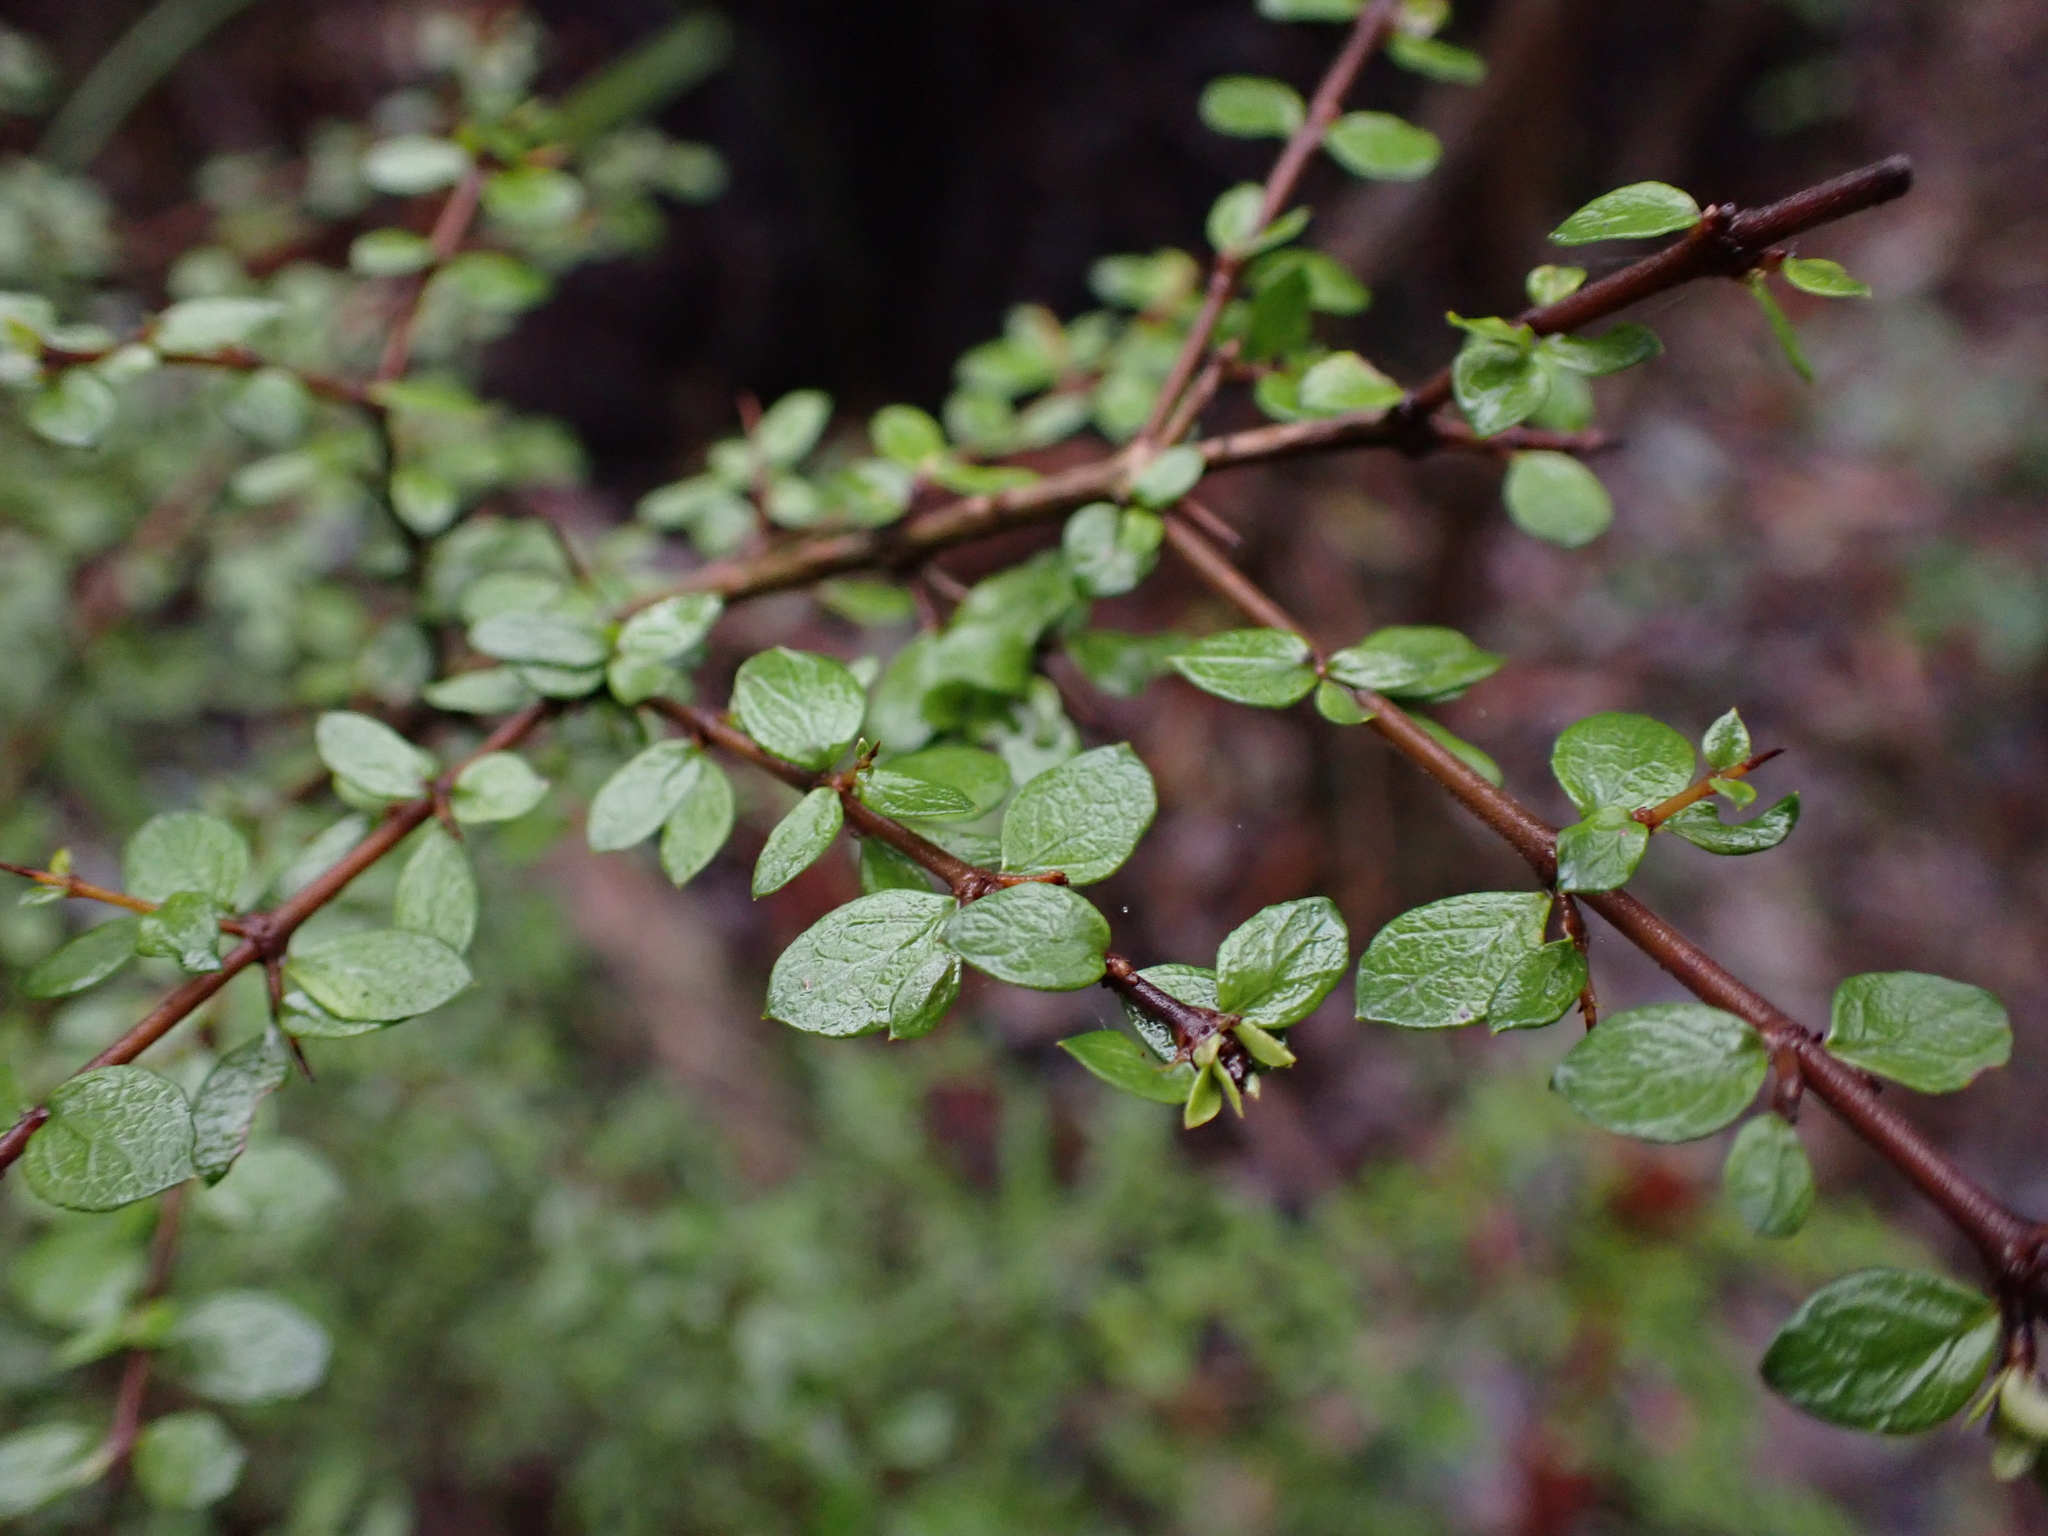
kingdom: Plantae
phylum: Tracheophyta
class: Magnoliopsida
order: Gentianales
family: Rubiaceae
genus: Coprosma
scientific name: Coprosma quadrifida
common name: Prickly currantbush
